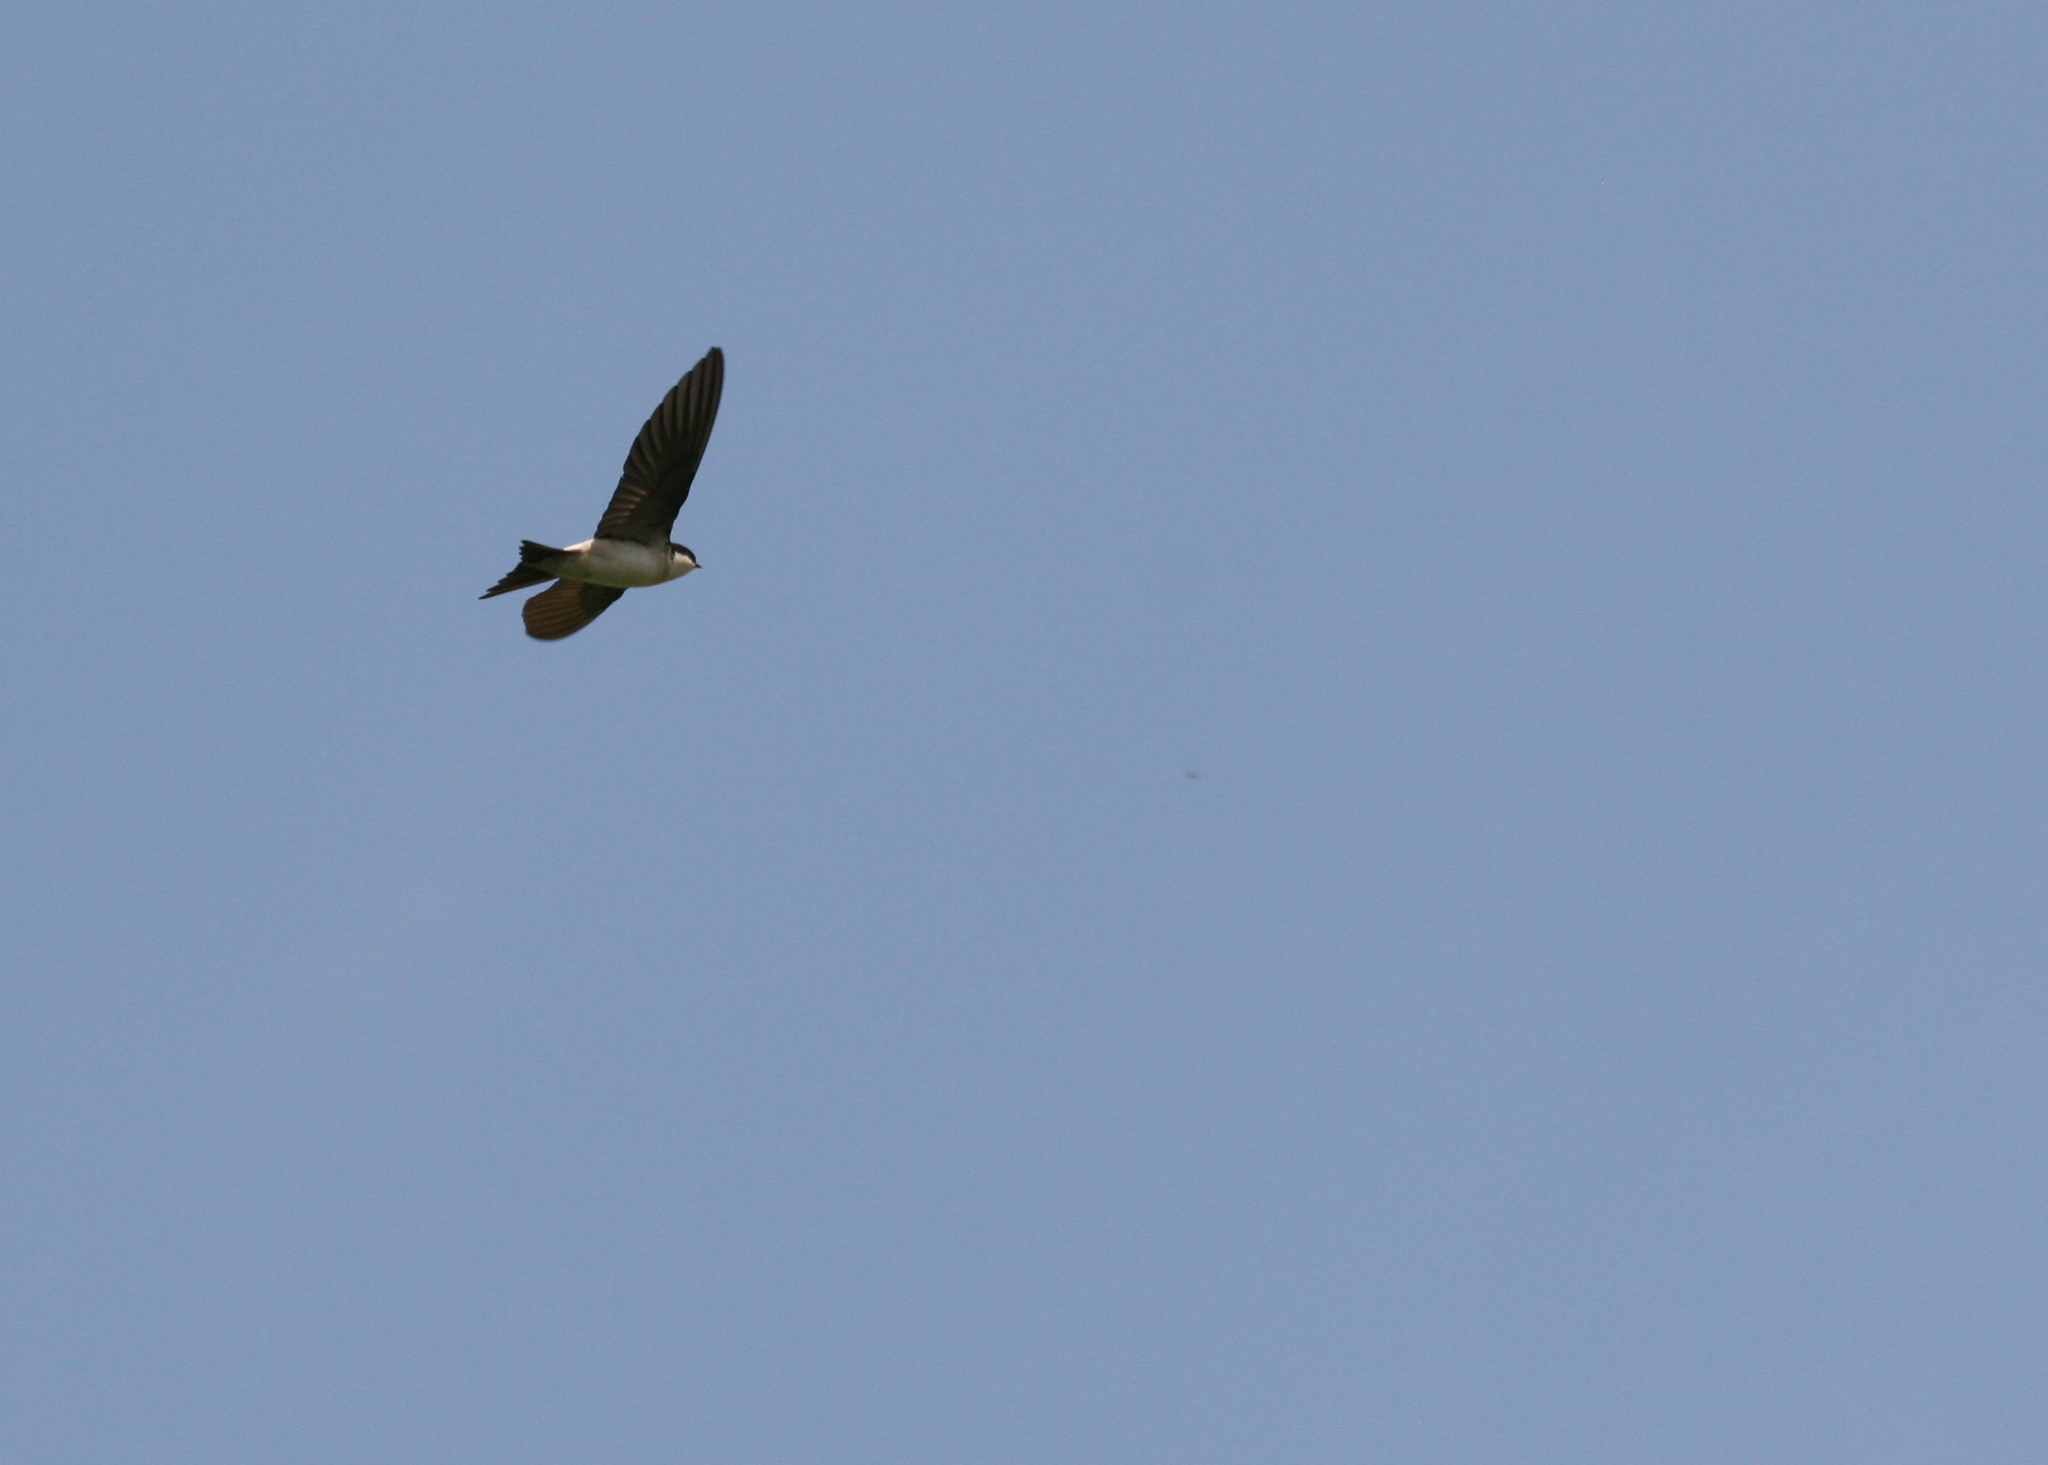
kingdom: Animalia
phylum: Chordata
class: Aves
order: Passeriformes
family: Hirundinidae
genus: Delichon
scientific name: Delichon urbicum
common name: Common house martin
